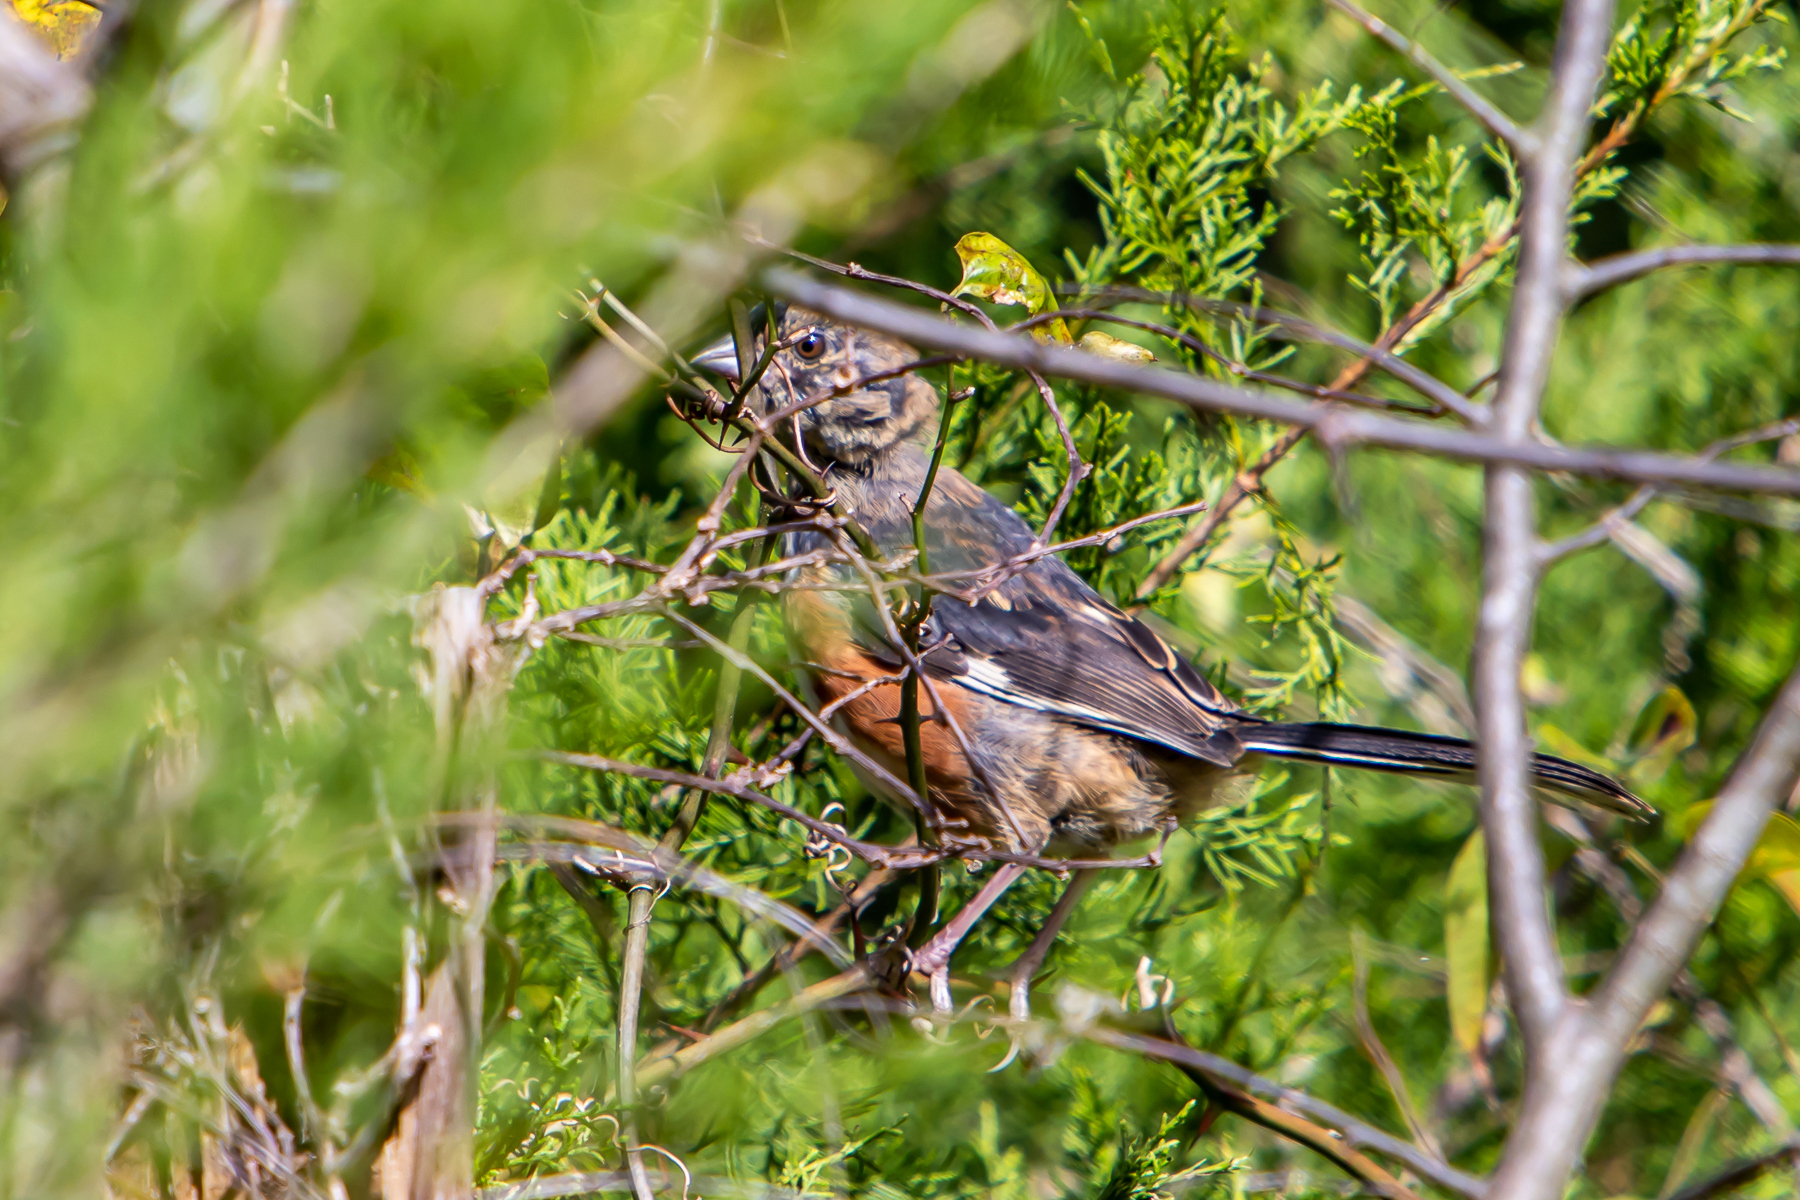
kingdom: Animalia
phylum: Chordata
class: Aves
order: Passeriformes
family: Passerellidae
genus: Pipilo
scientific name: Pipilo erythrophthalmus
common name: Eastern towhee
